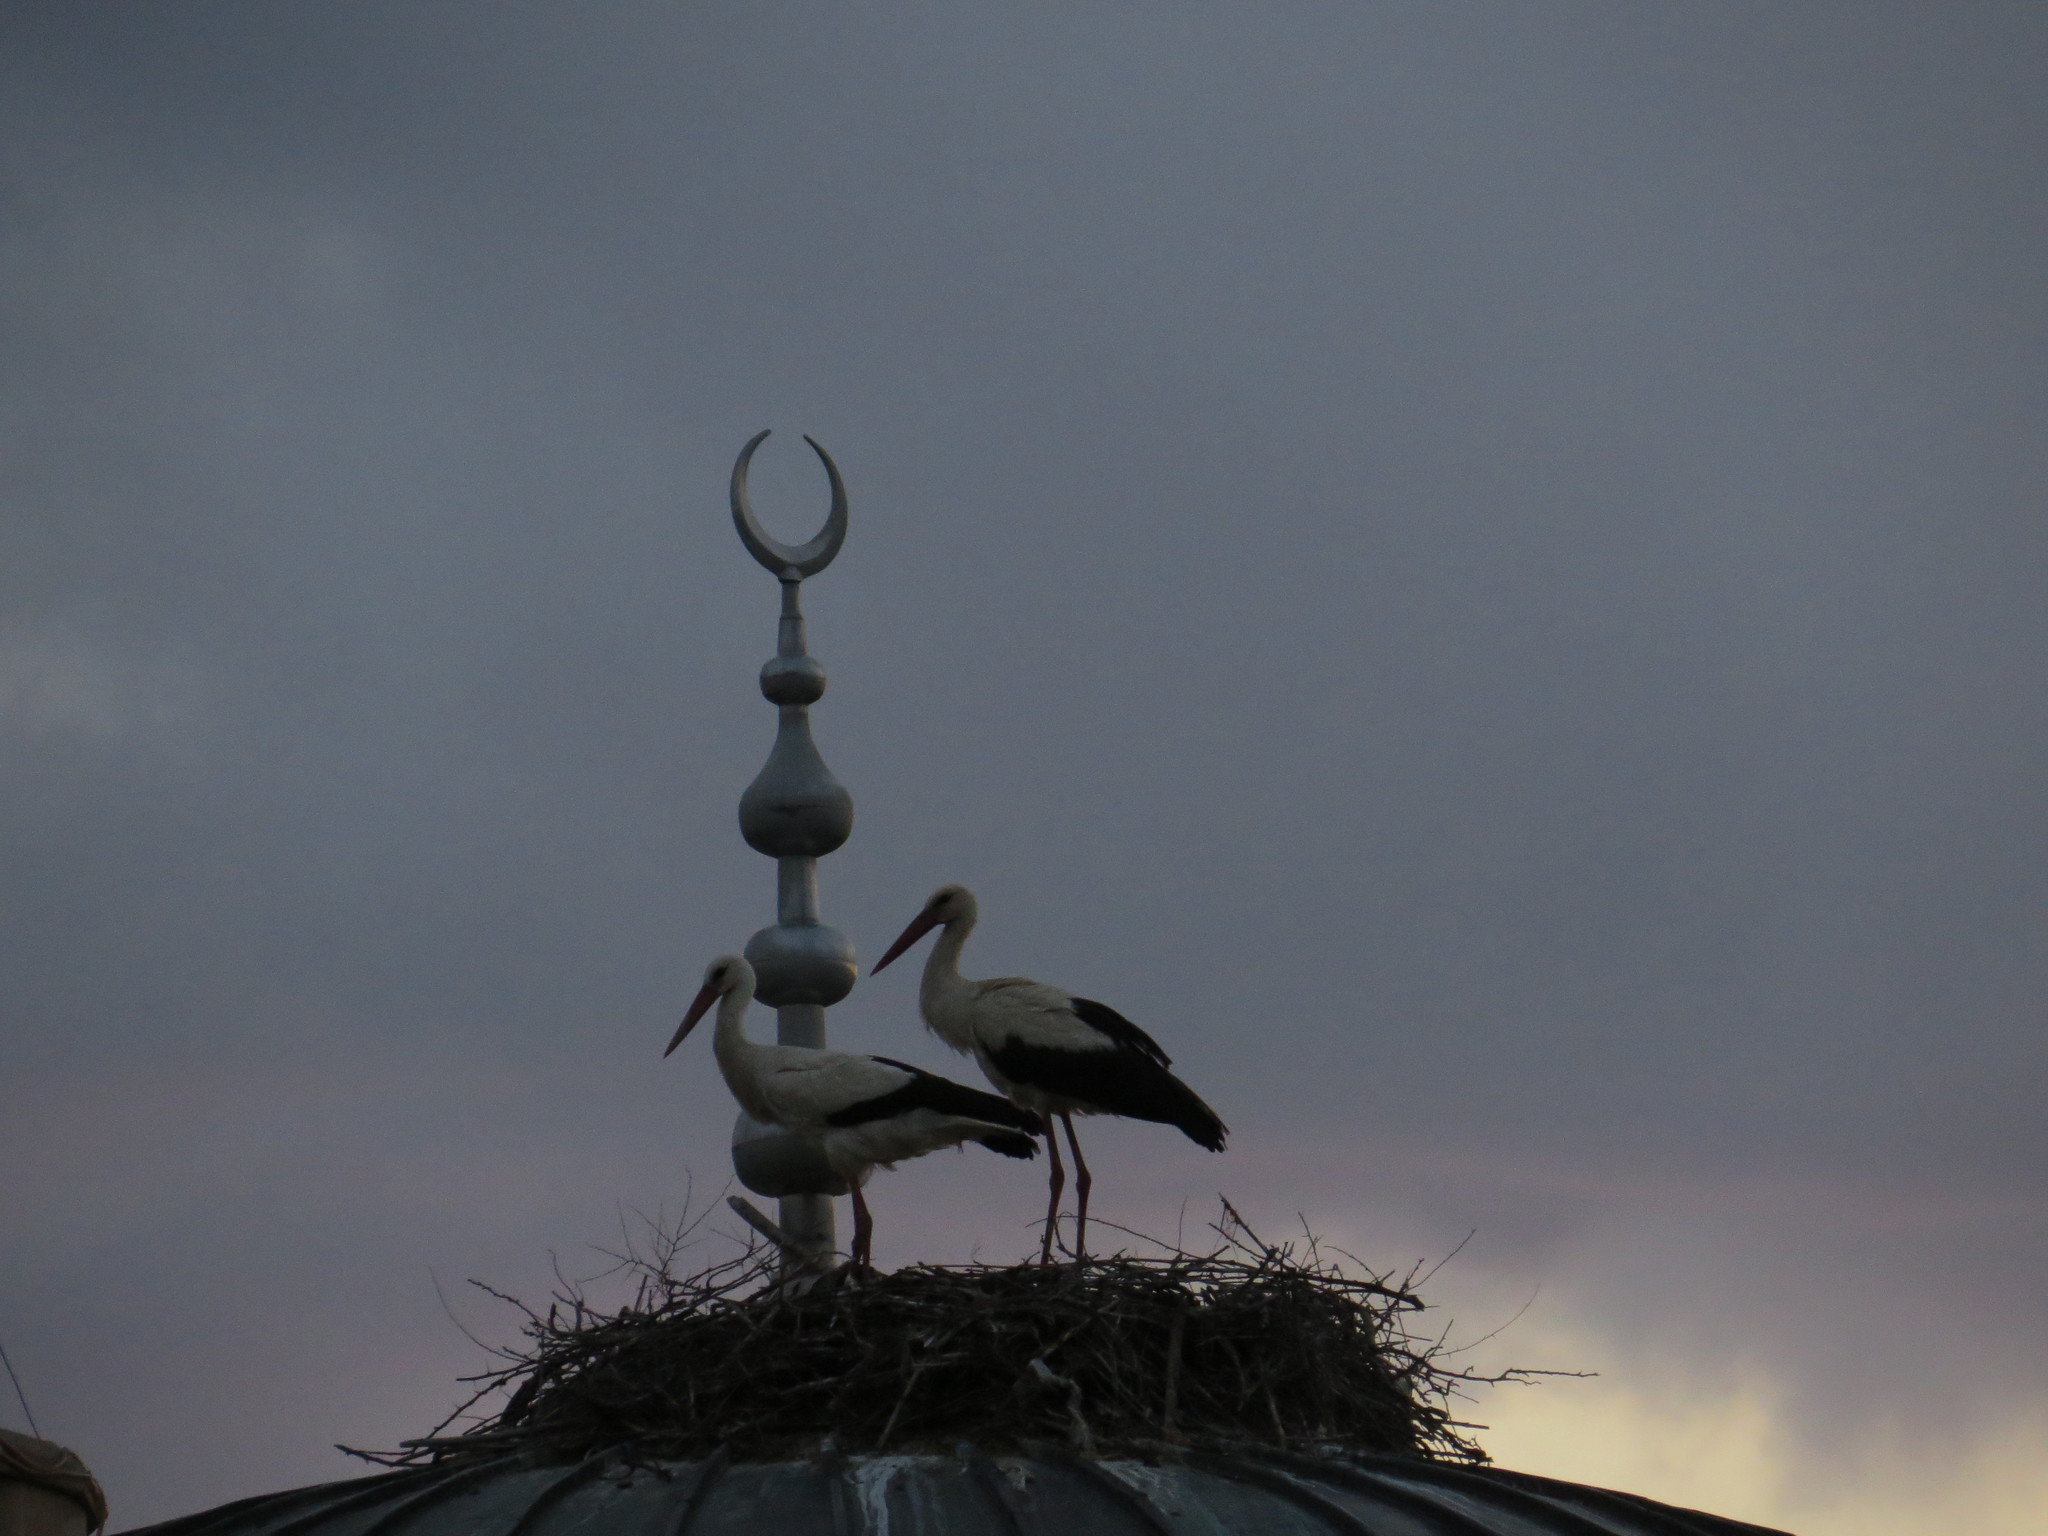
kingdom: Animalia
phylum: Chordata
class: Aves
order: Ciconiiformes
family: Ciconiidae
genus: Ciconia
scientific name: Ciconia ciconia
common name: White stork
